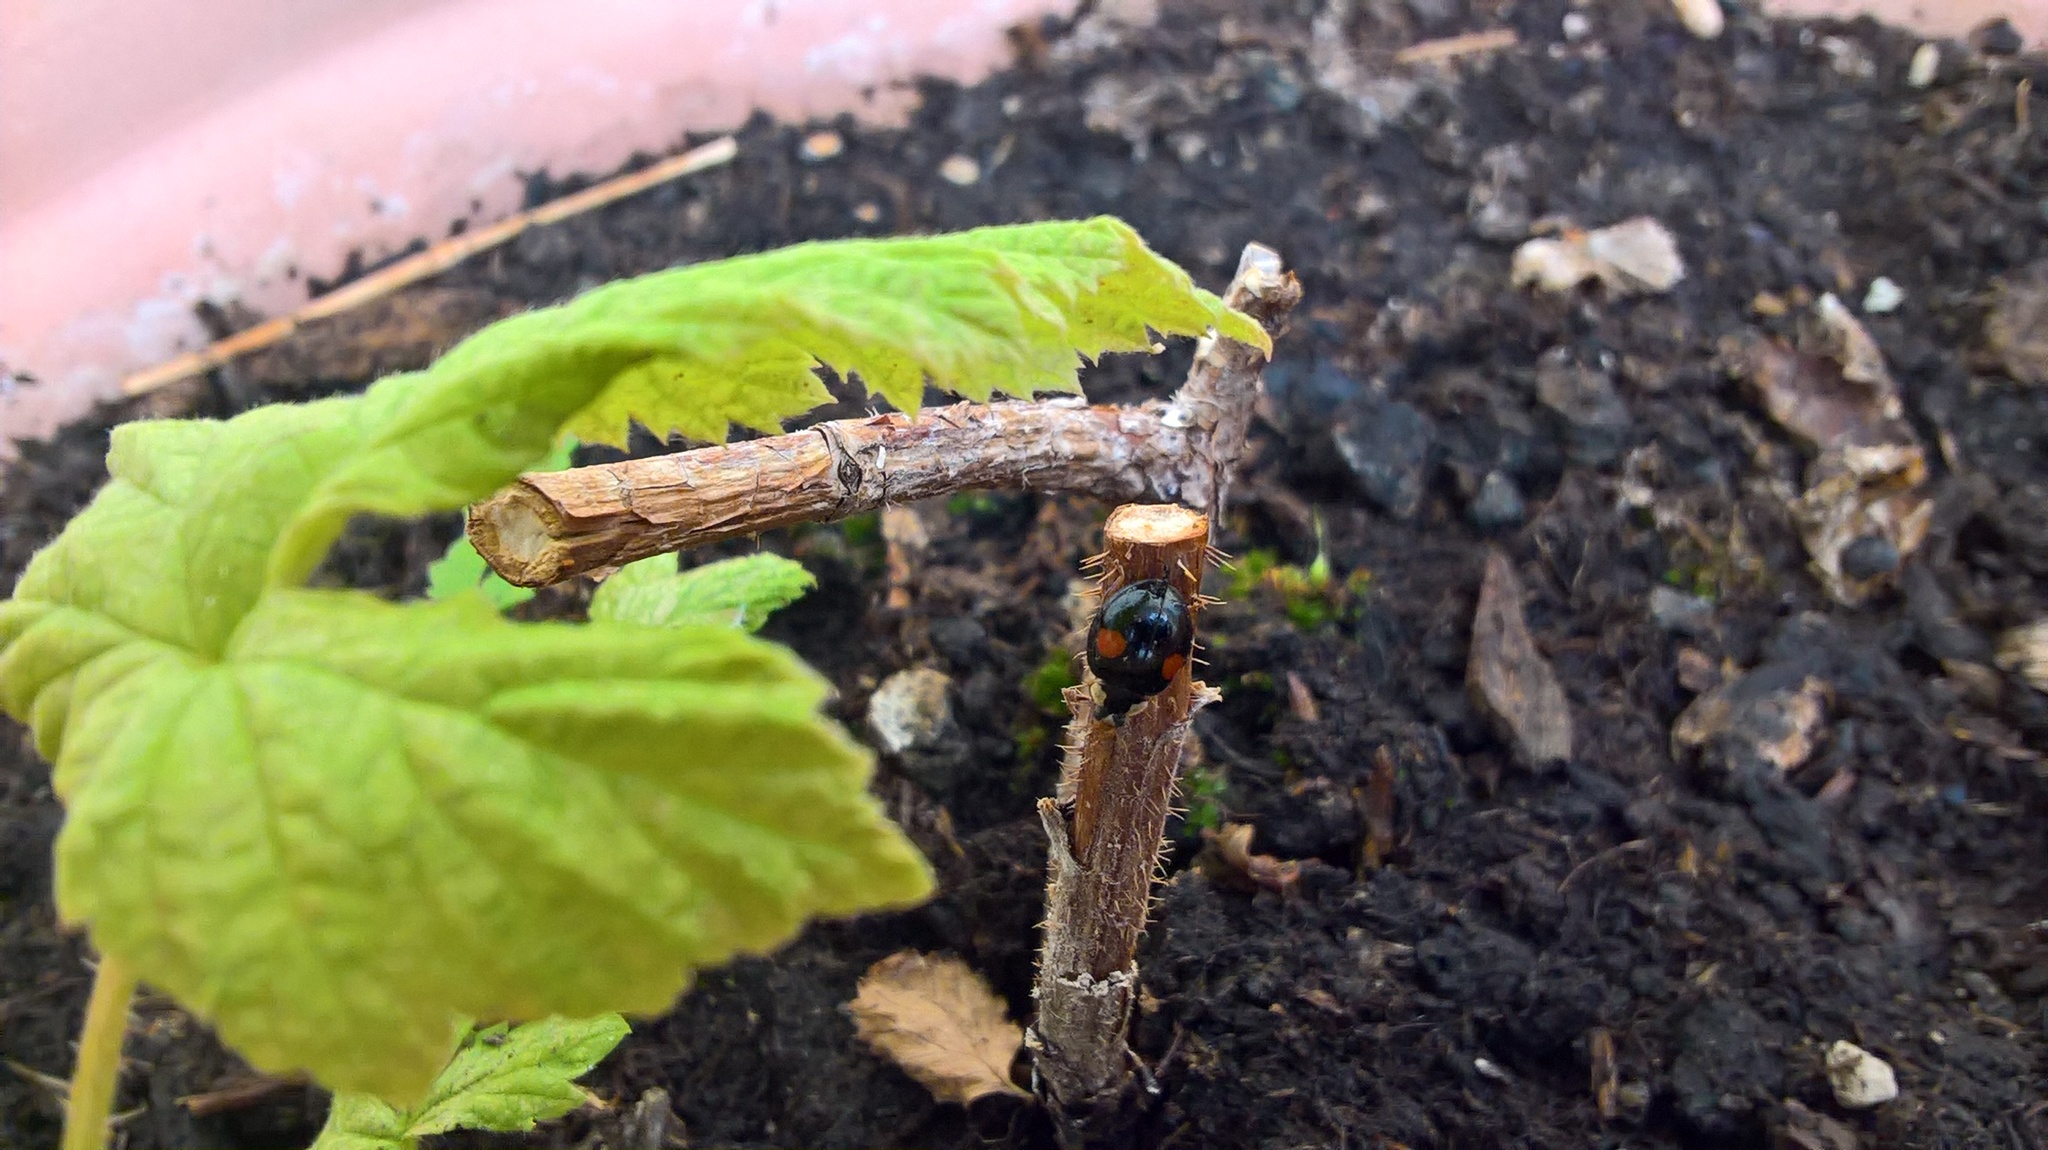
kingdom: Animalia
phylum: Arthropoda
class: Insecta
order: Coleoptera
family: Coccinellidae
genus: Harmonia
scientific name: Harmonia axyridis
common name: Harlequin ladybird
